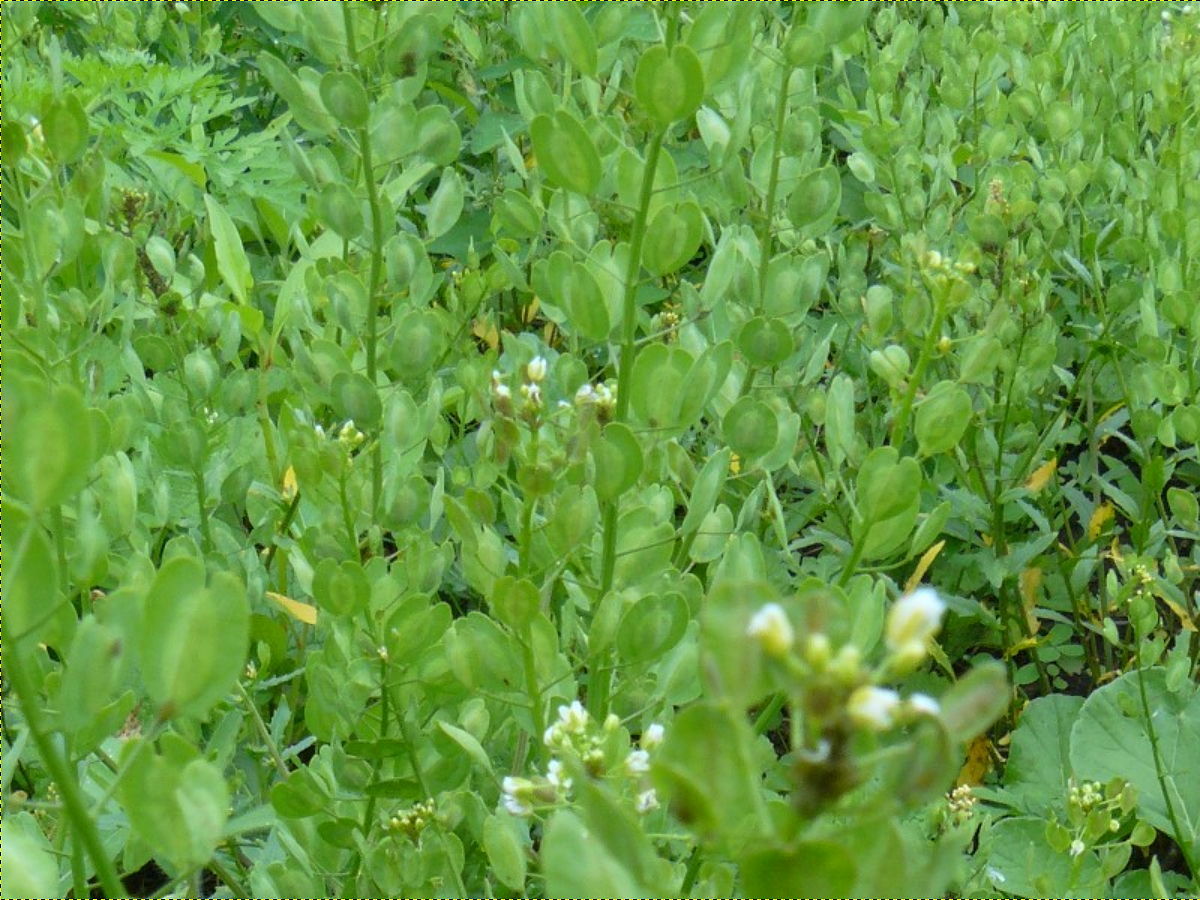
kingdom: Plantae
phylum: Tracheophyta
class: Magnoliopsida
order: Brassicales
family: Brassicaceae
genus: Thlaspi
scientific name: Thlaspi arvense
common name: Field pennycress
